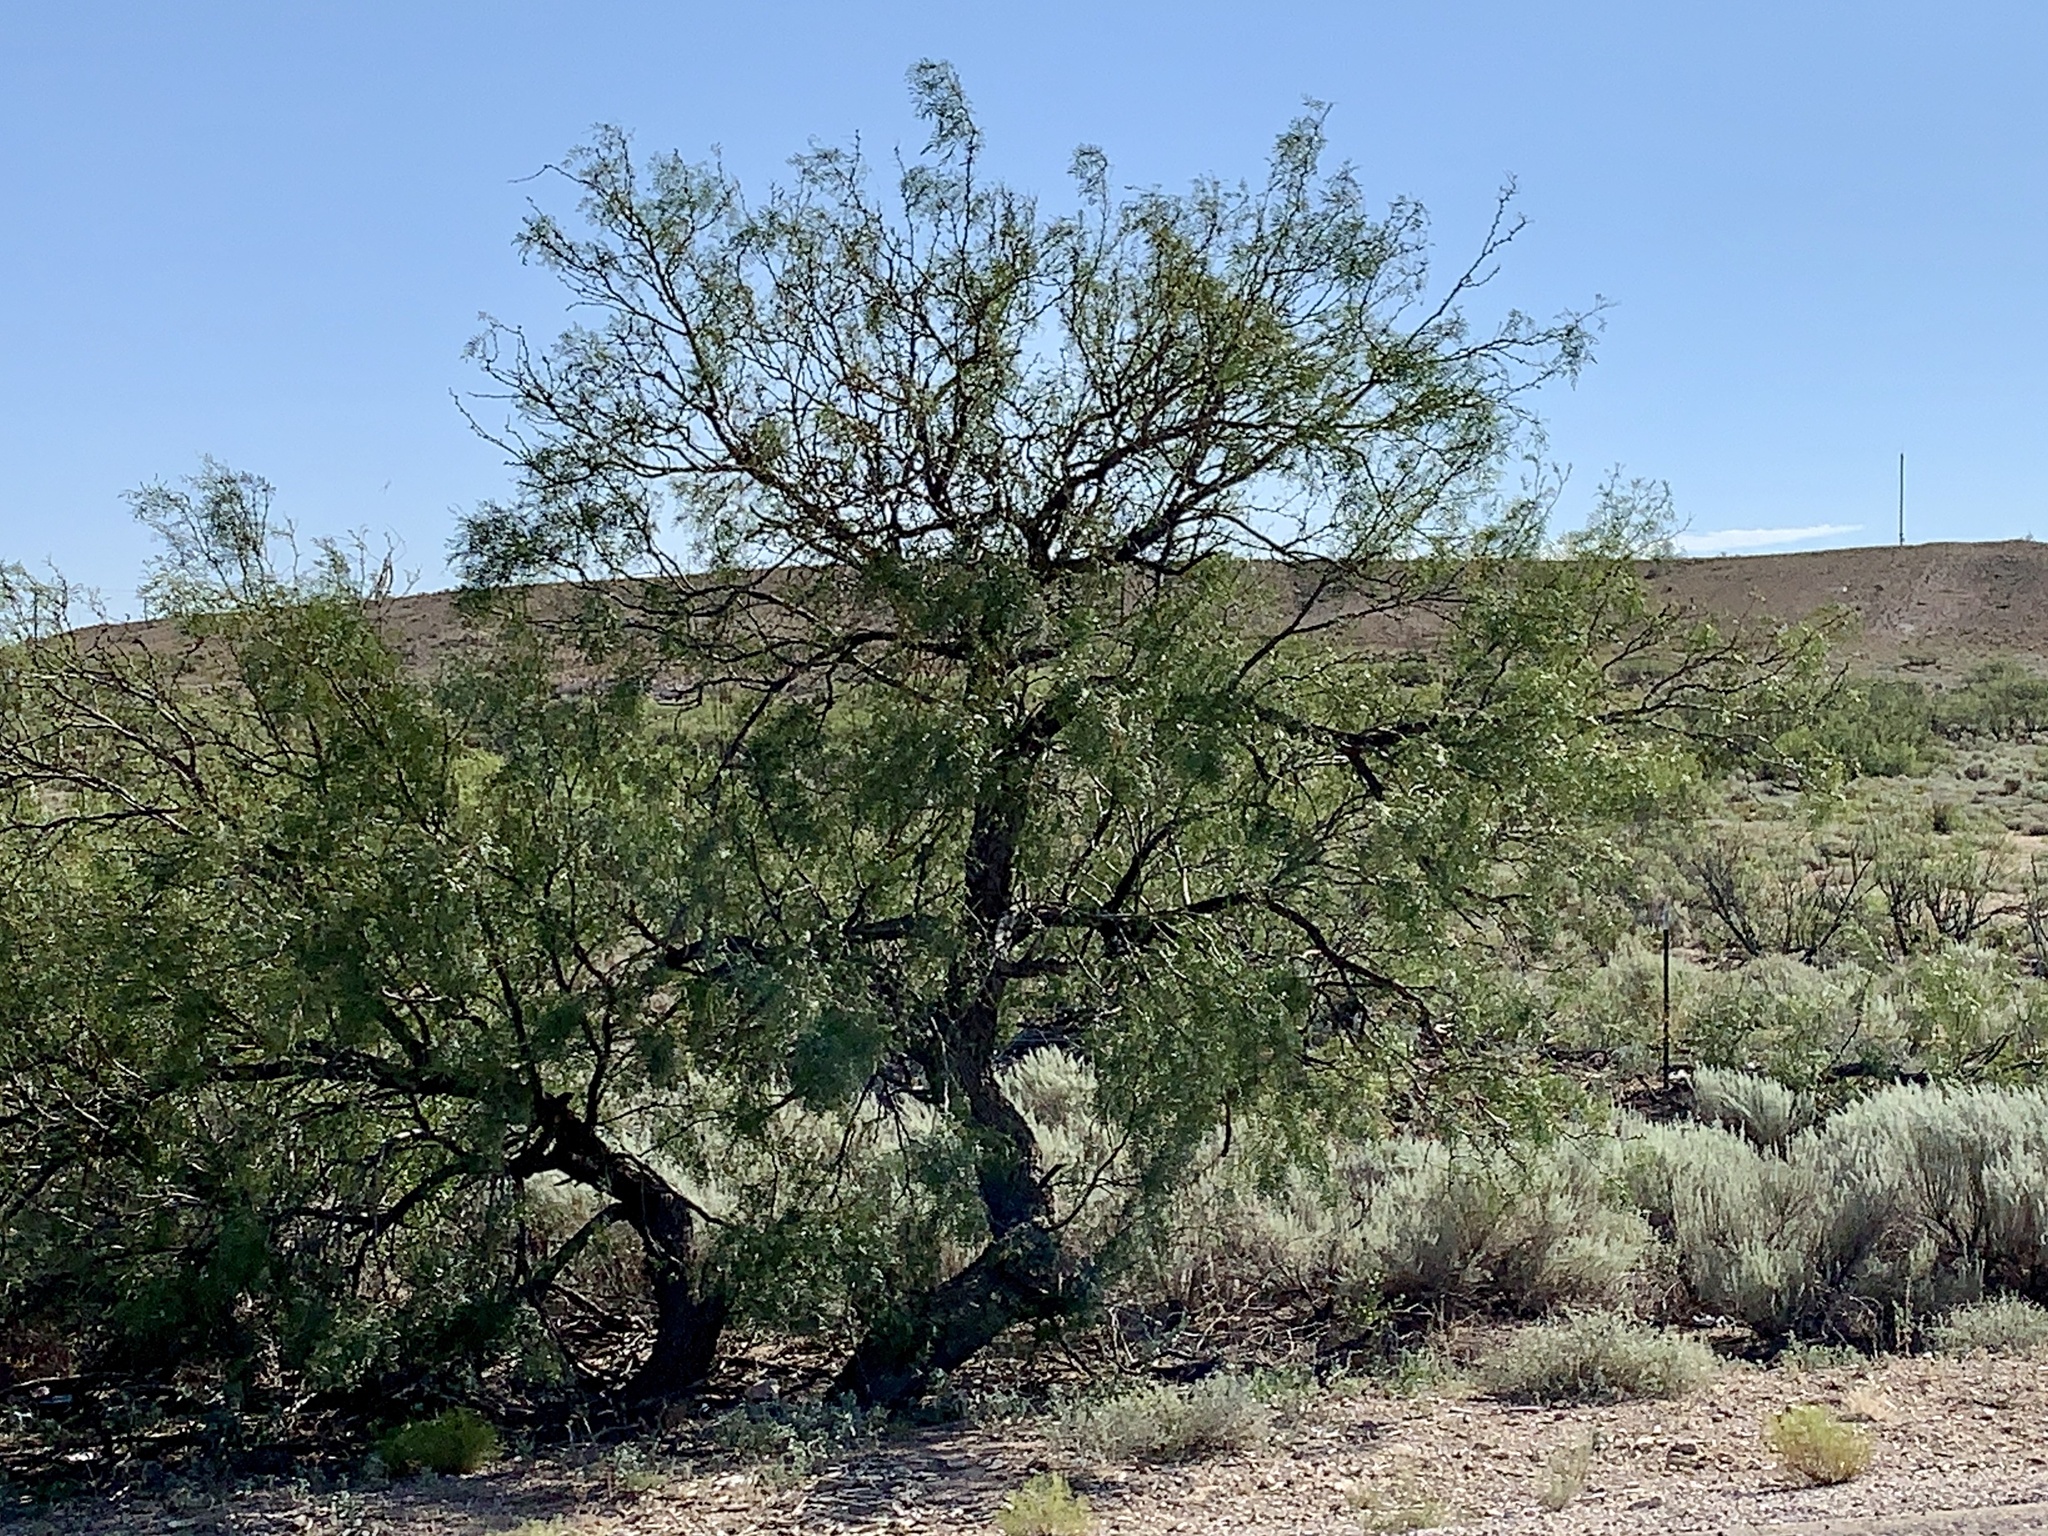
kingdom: Plantae
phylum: Tracheophyta
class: Magnoliopsida
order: Fabales
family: Fabaceae
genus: Prosopis
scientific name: Prosopis glandulosa
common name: Honey mesquite
